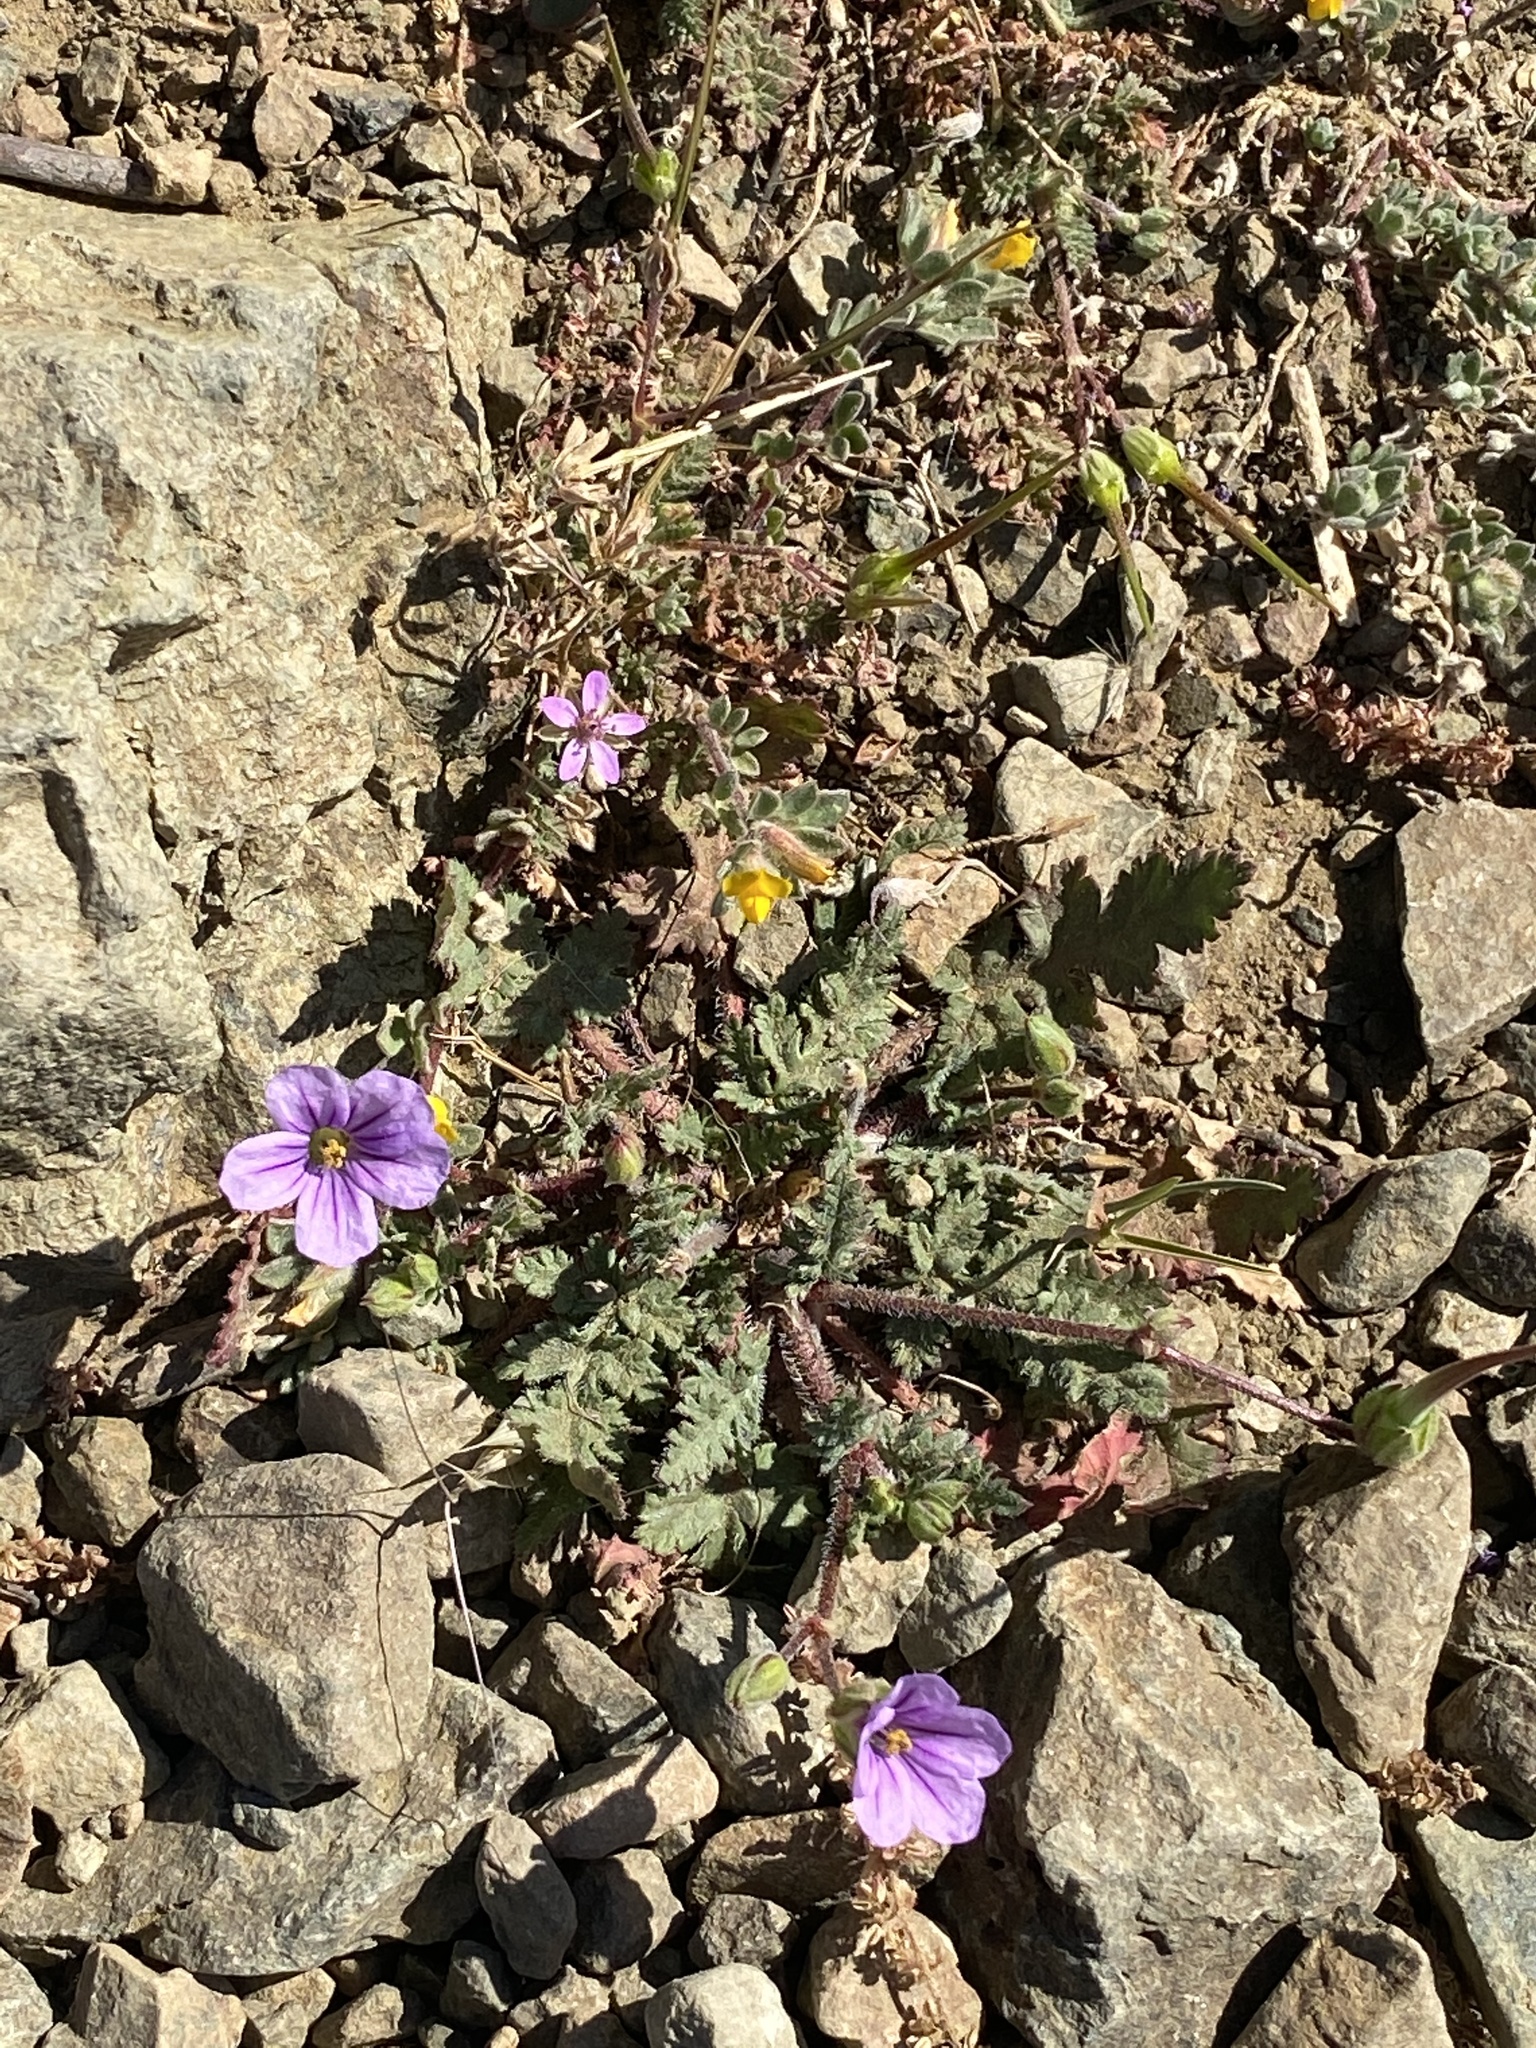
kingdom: Plantae
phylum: Tracheophyta
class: Magnoliopsida
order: Geraniales
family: Geraniaceae
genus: Erodium
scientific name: Erodium botrys
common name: Mediterranean stork's-bill
